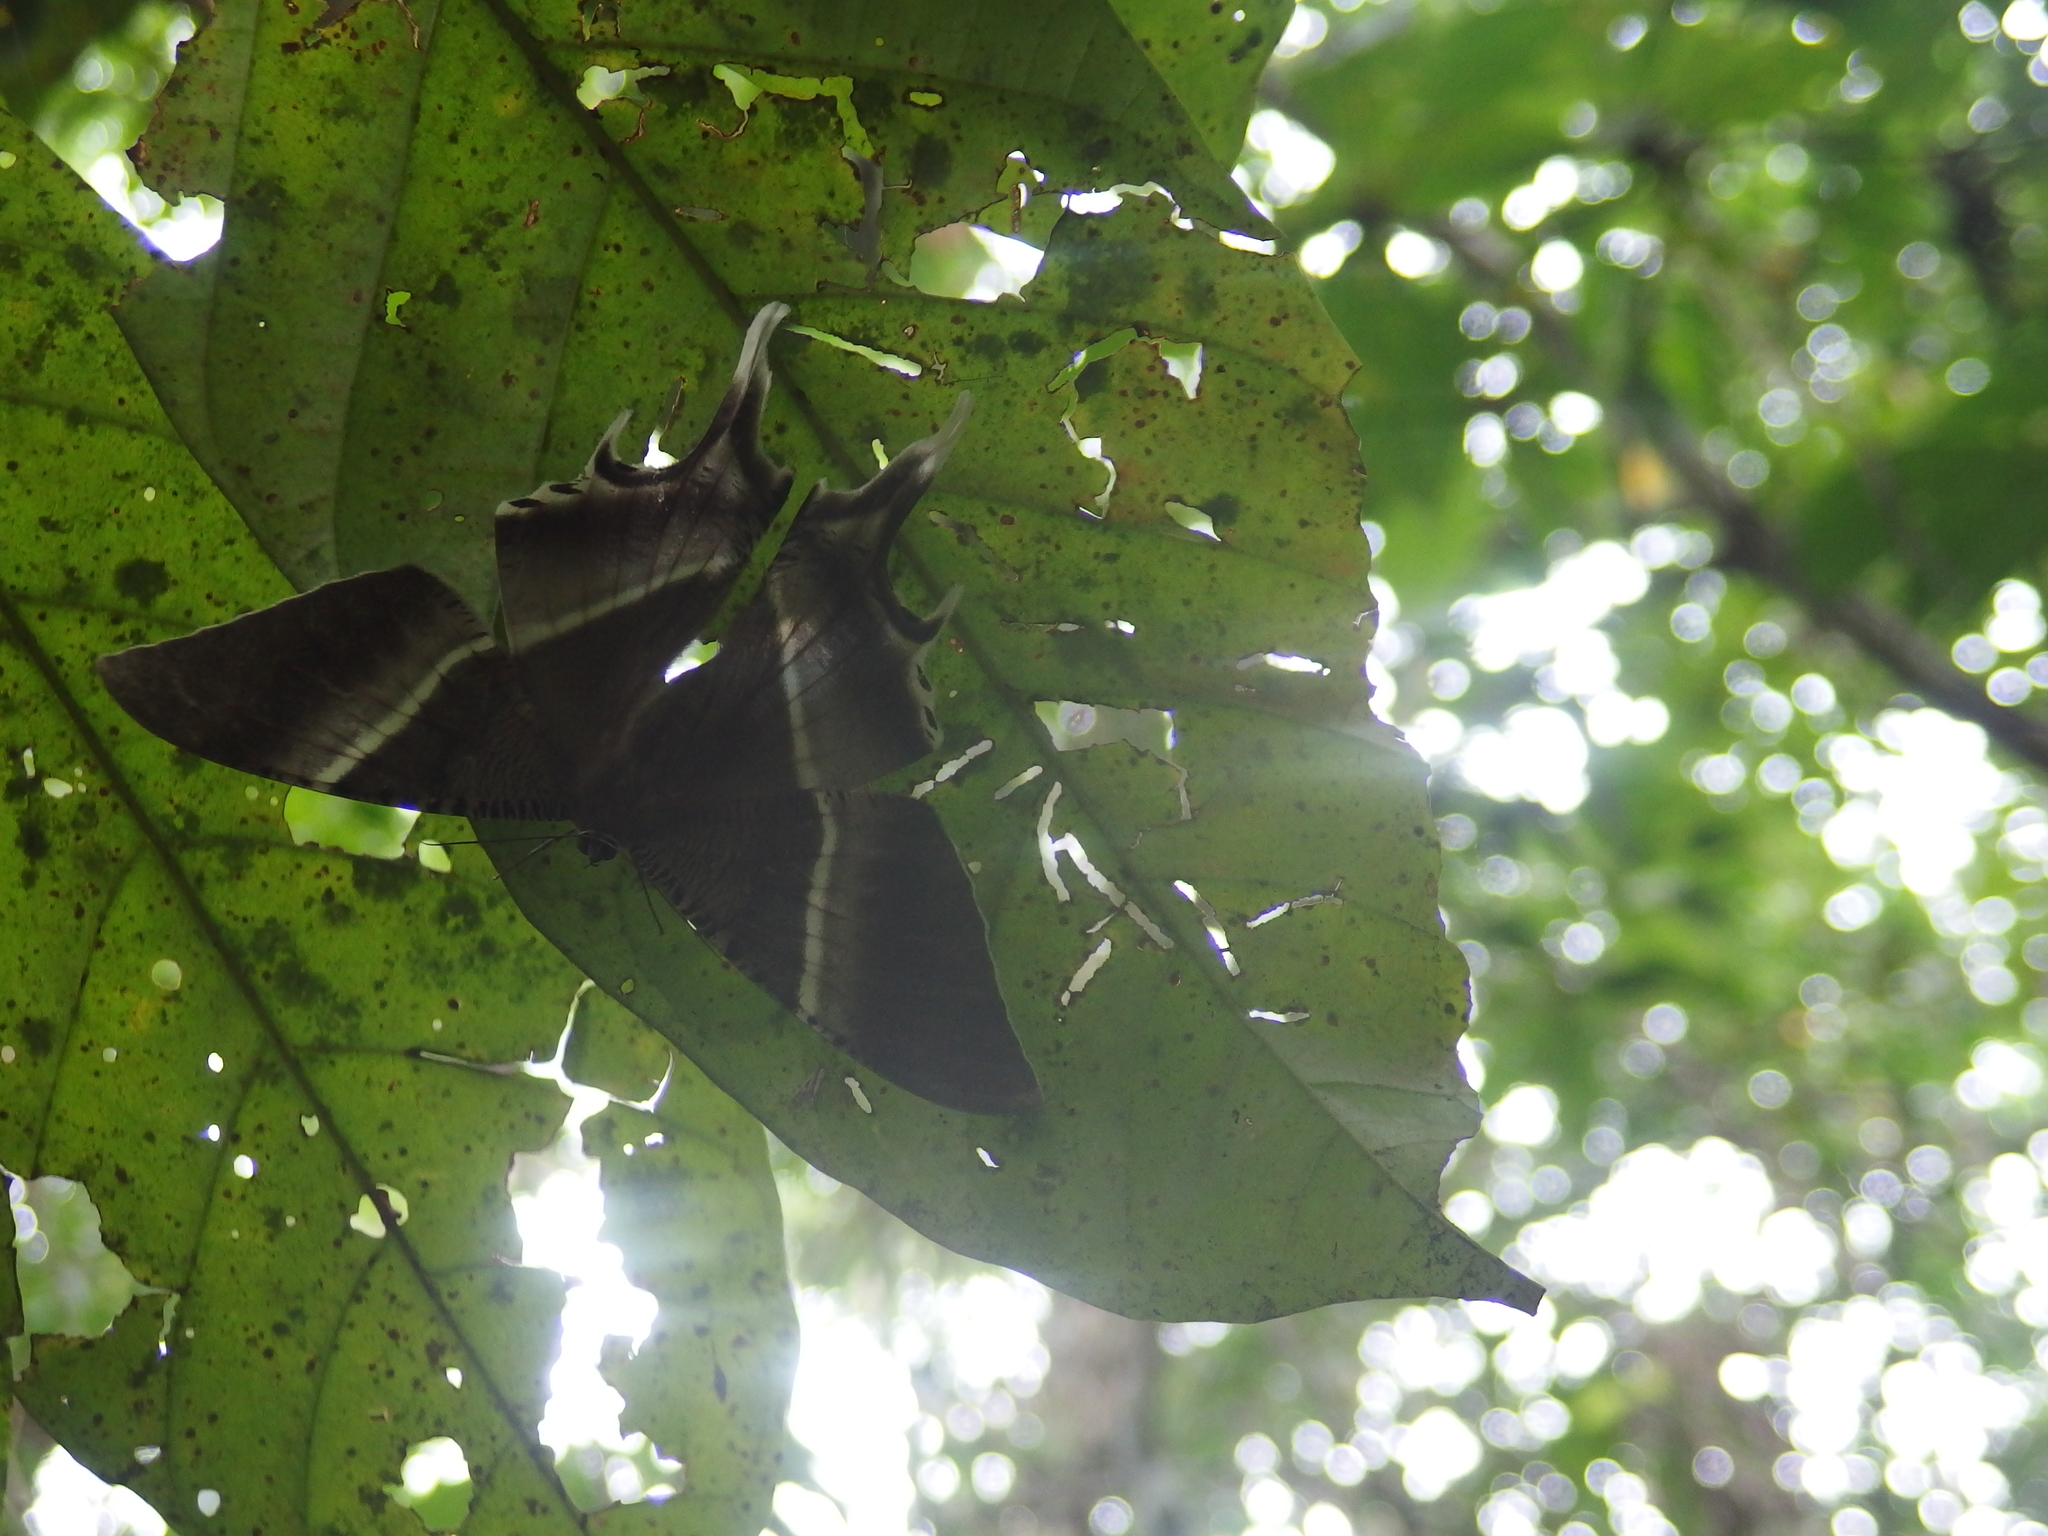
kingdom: Animalia
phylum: Arthropoda
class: Insecta
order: Lepidoptera
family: Uraniidae
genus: Lyssa
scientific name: Lyssa zampa
